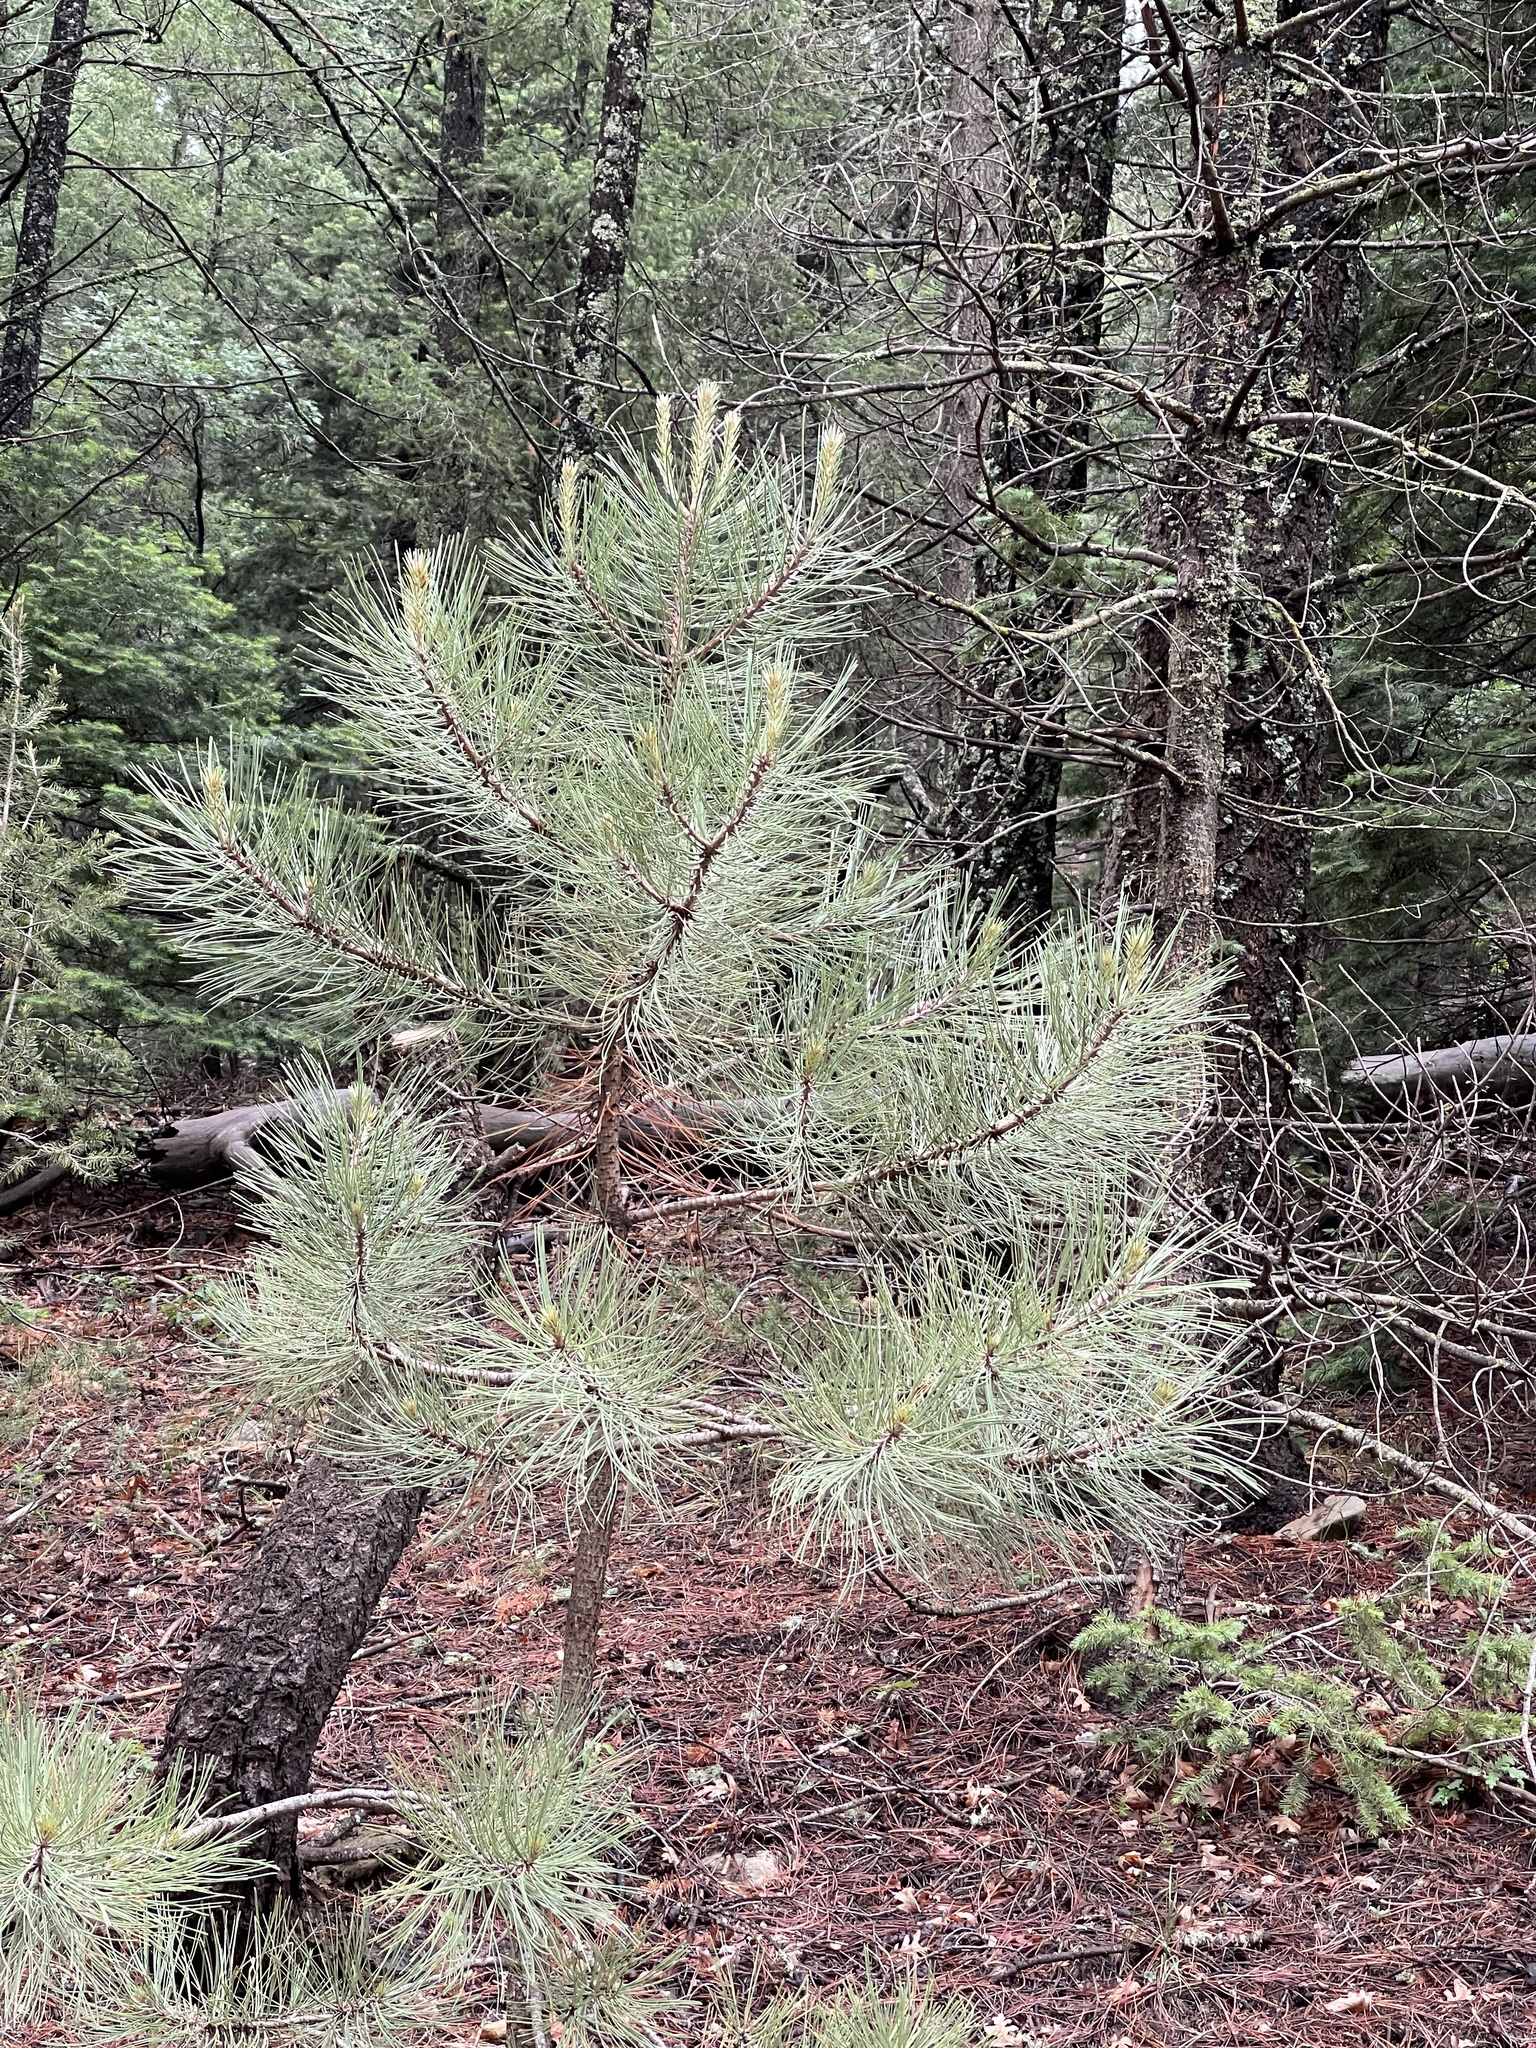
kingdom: Plantae
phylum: Tracheophyta
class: Pinopsida
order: Pinales
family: Pinaceae
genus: Pinus
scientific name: Pinus ponderosa
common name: Western yellow-pine
